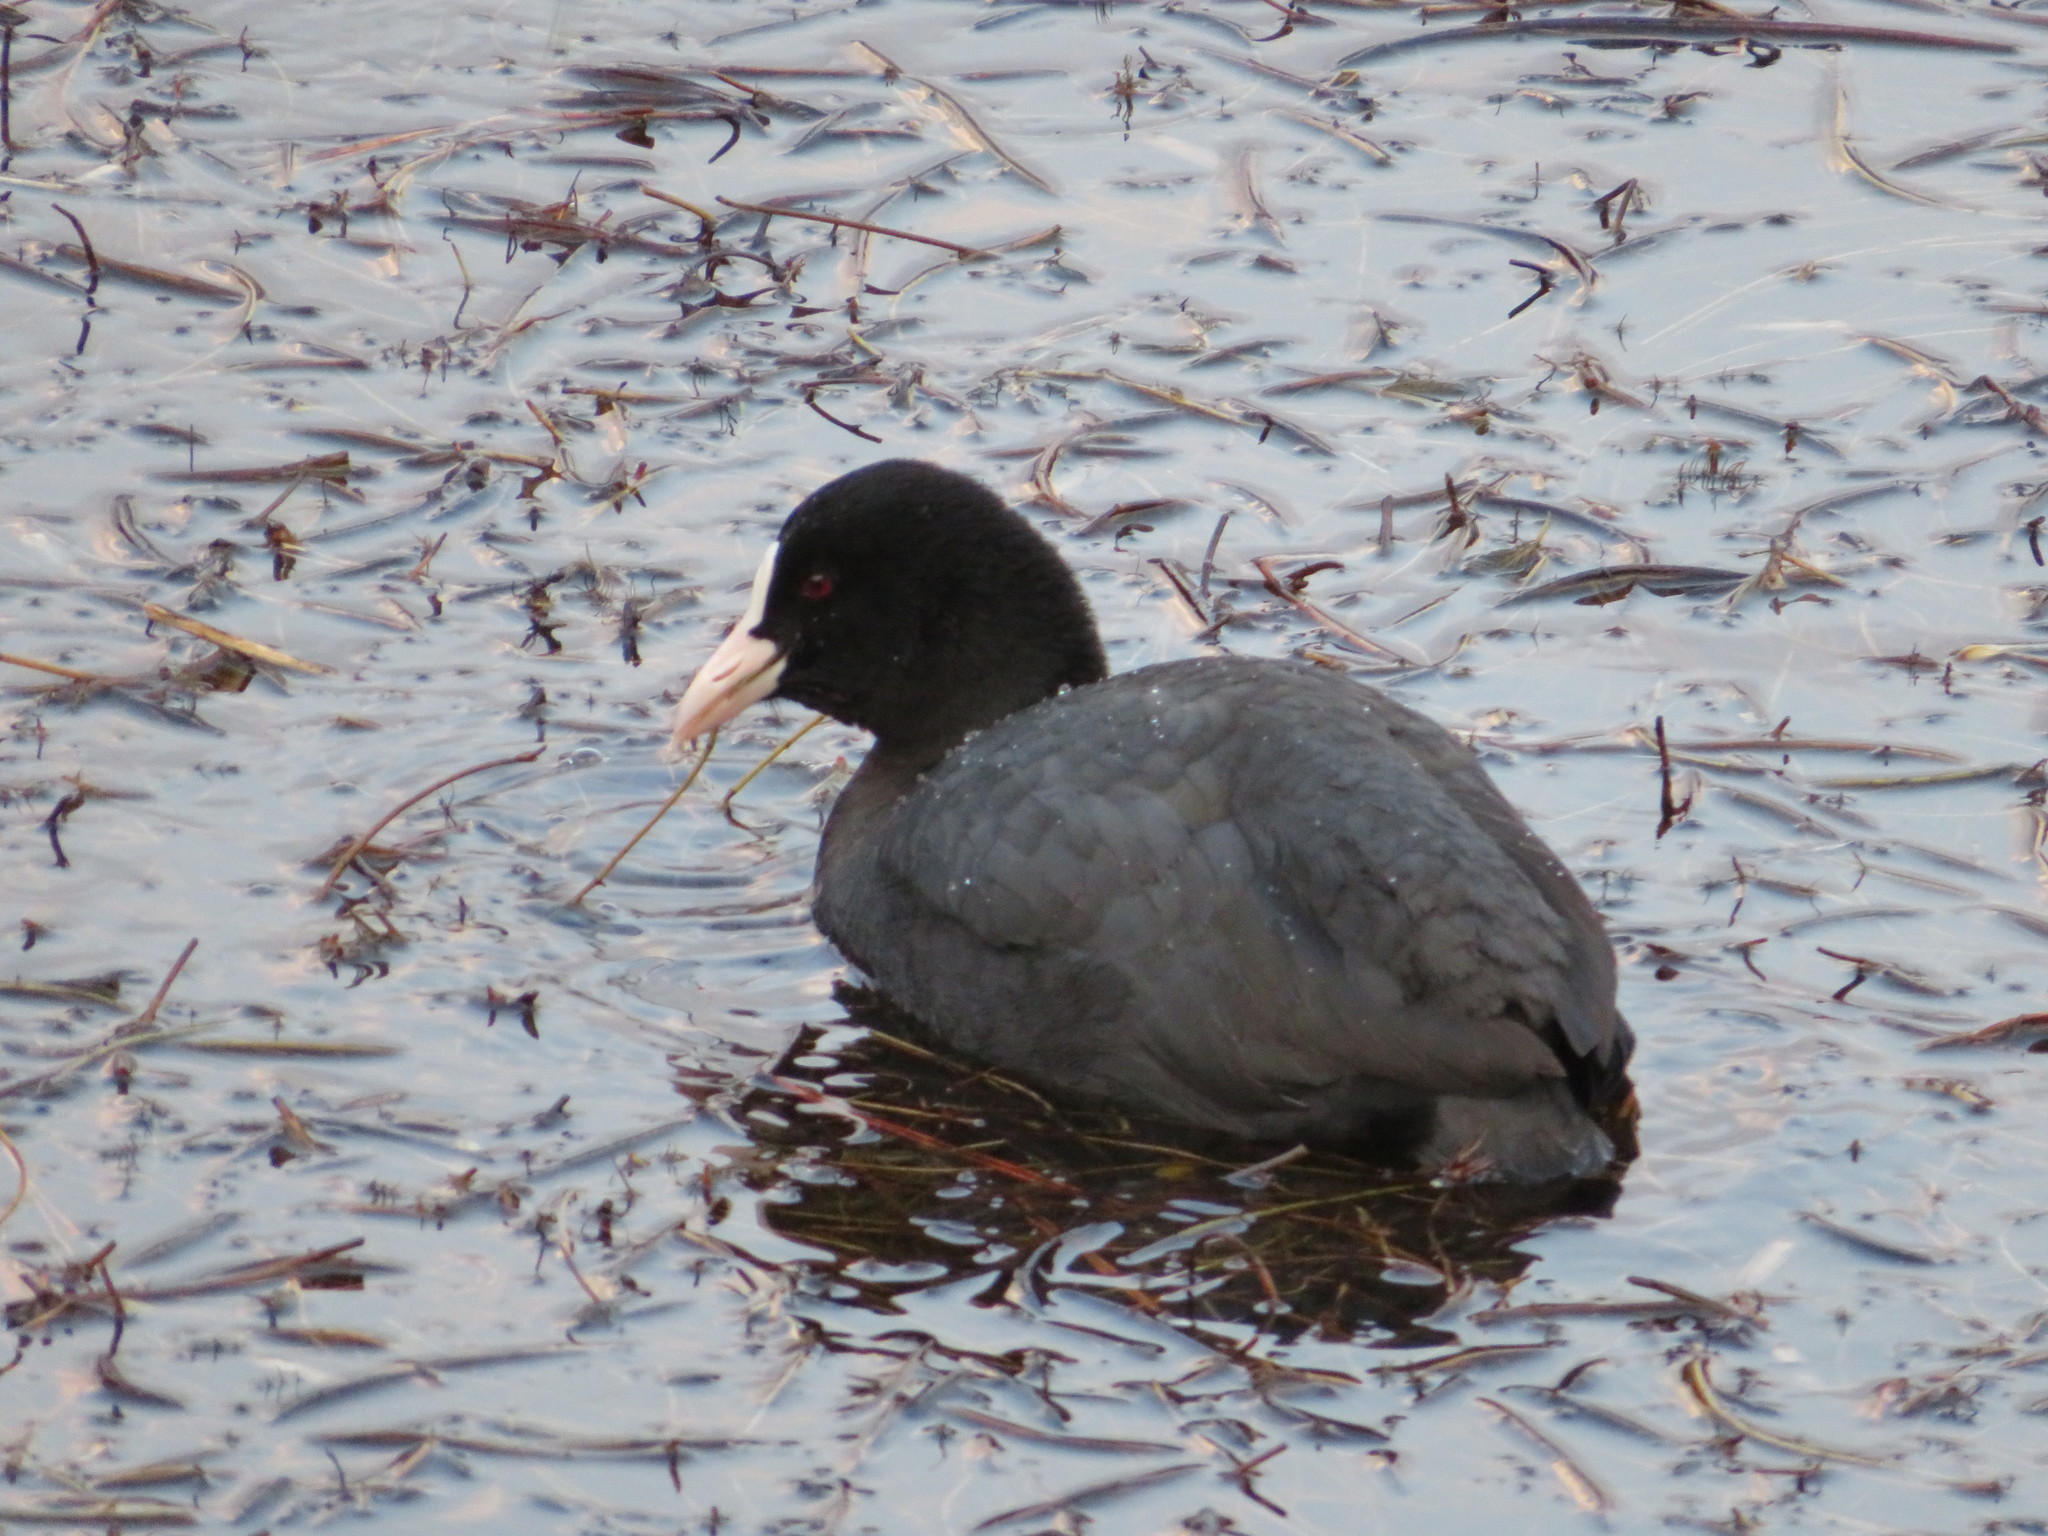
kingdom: Animalia
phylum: Chordata
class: Aves
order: Gruiformes
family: Rallidae
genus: Fulica
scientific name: Fulica atra
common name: Eurasian coot
